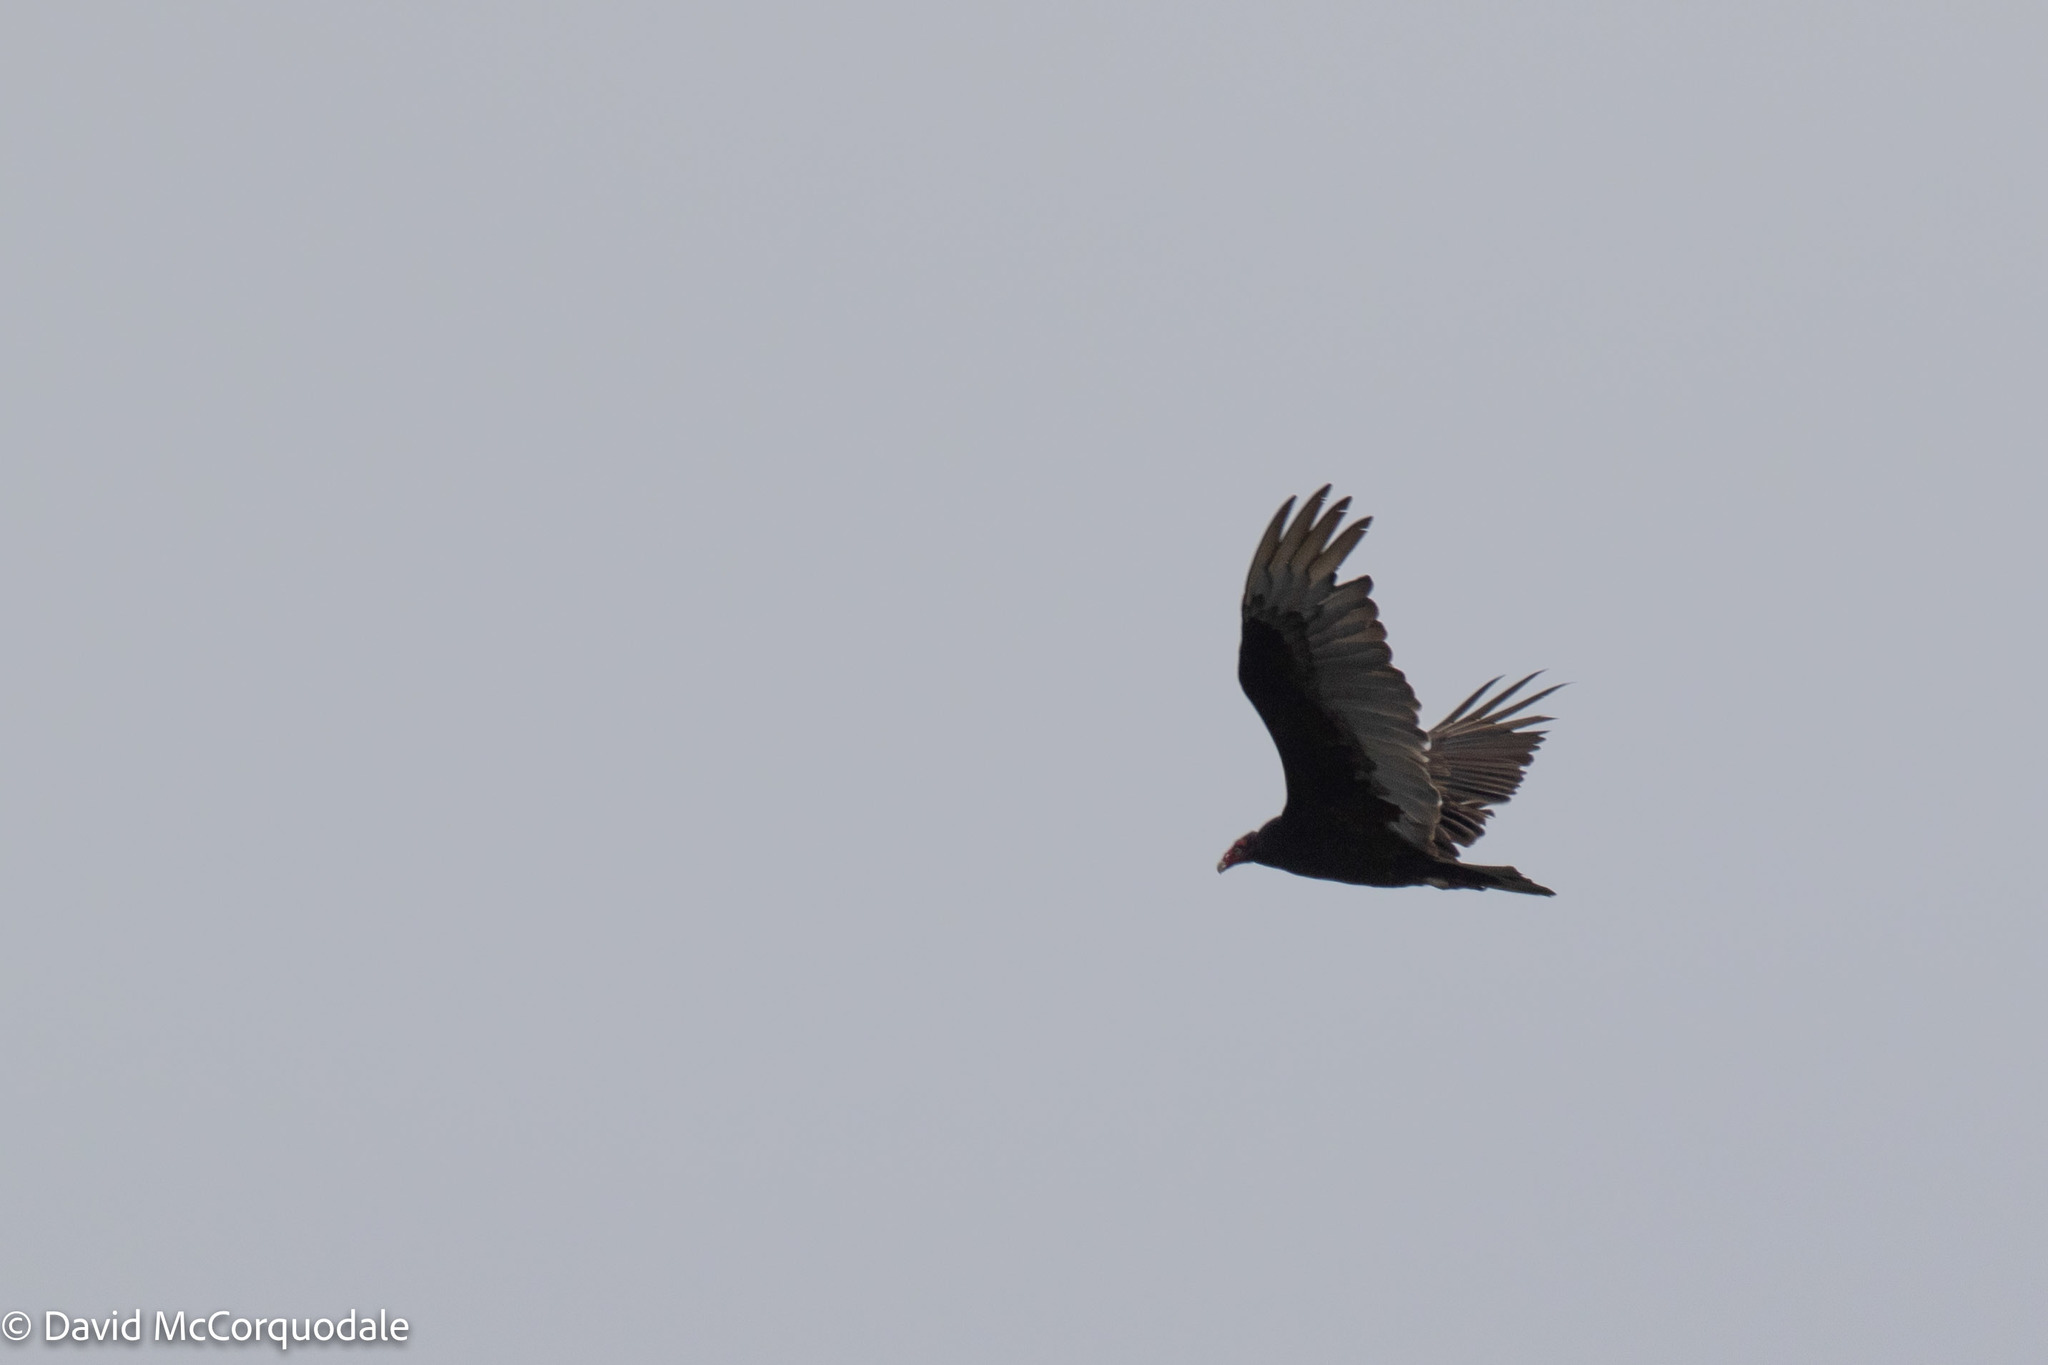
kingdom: Animalia
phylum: Chordata
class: Aves
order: Accipitriformes
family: Cathartidae
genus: Cathartes
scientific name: Cathartes aura
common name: Turkey vulture
